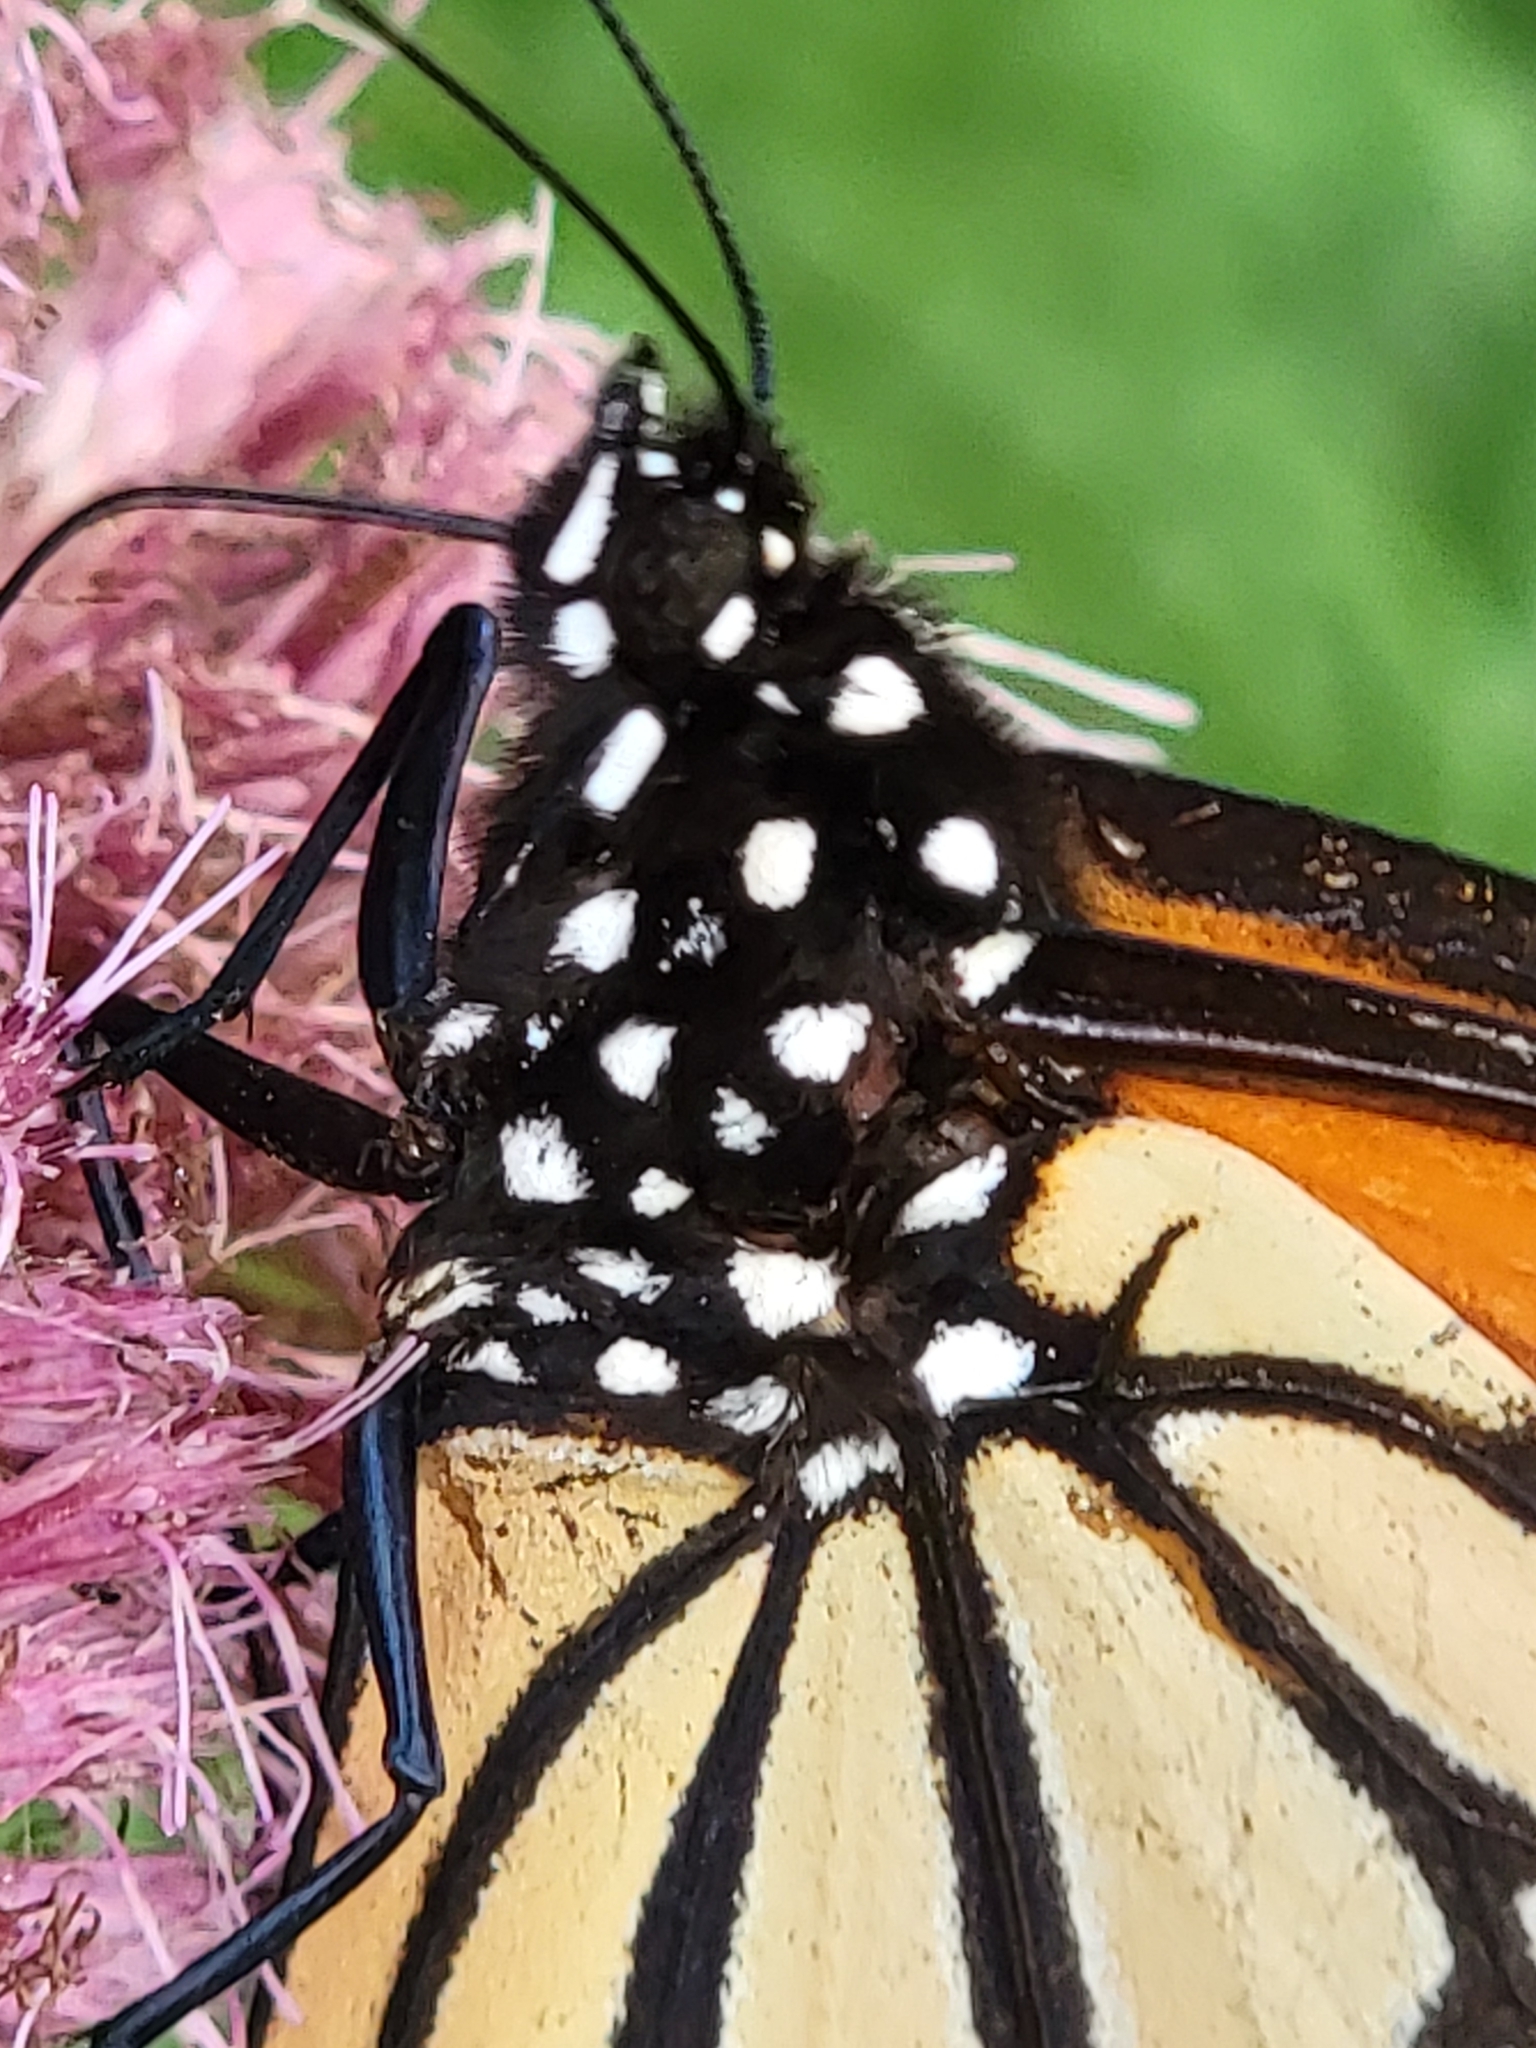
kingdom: Animalia
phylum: Arthropoda
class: Insecta
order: Lepidoptera
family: Nymphalidae
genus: Danaus
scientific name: Danaus plexippus
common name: Monarch
